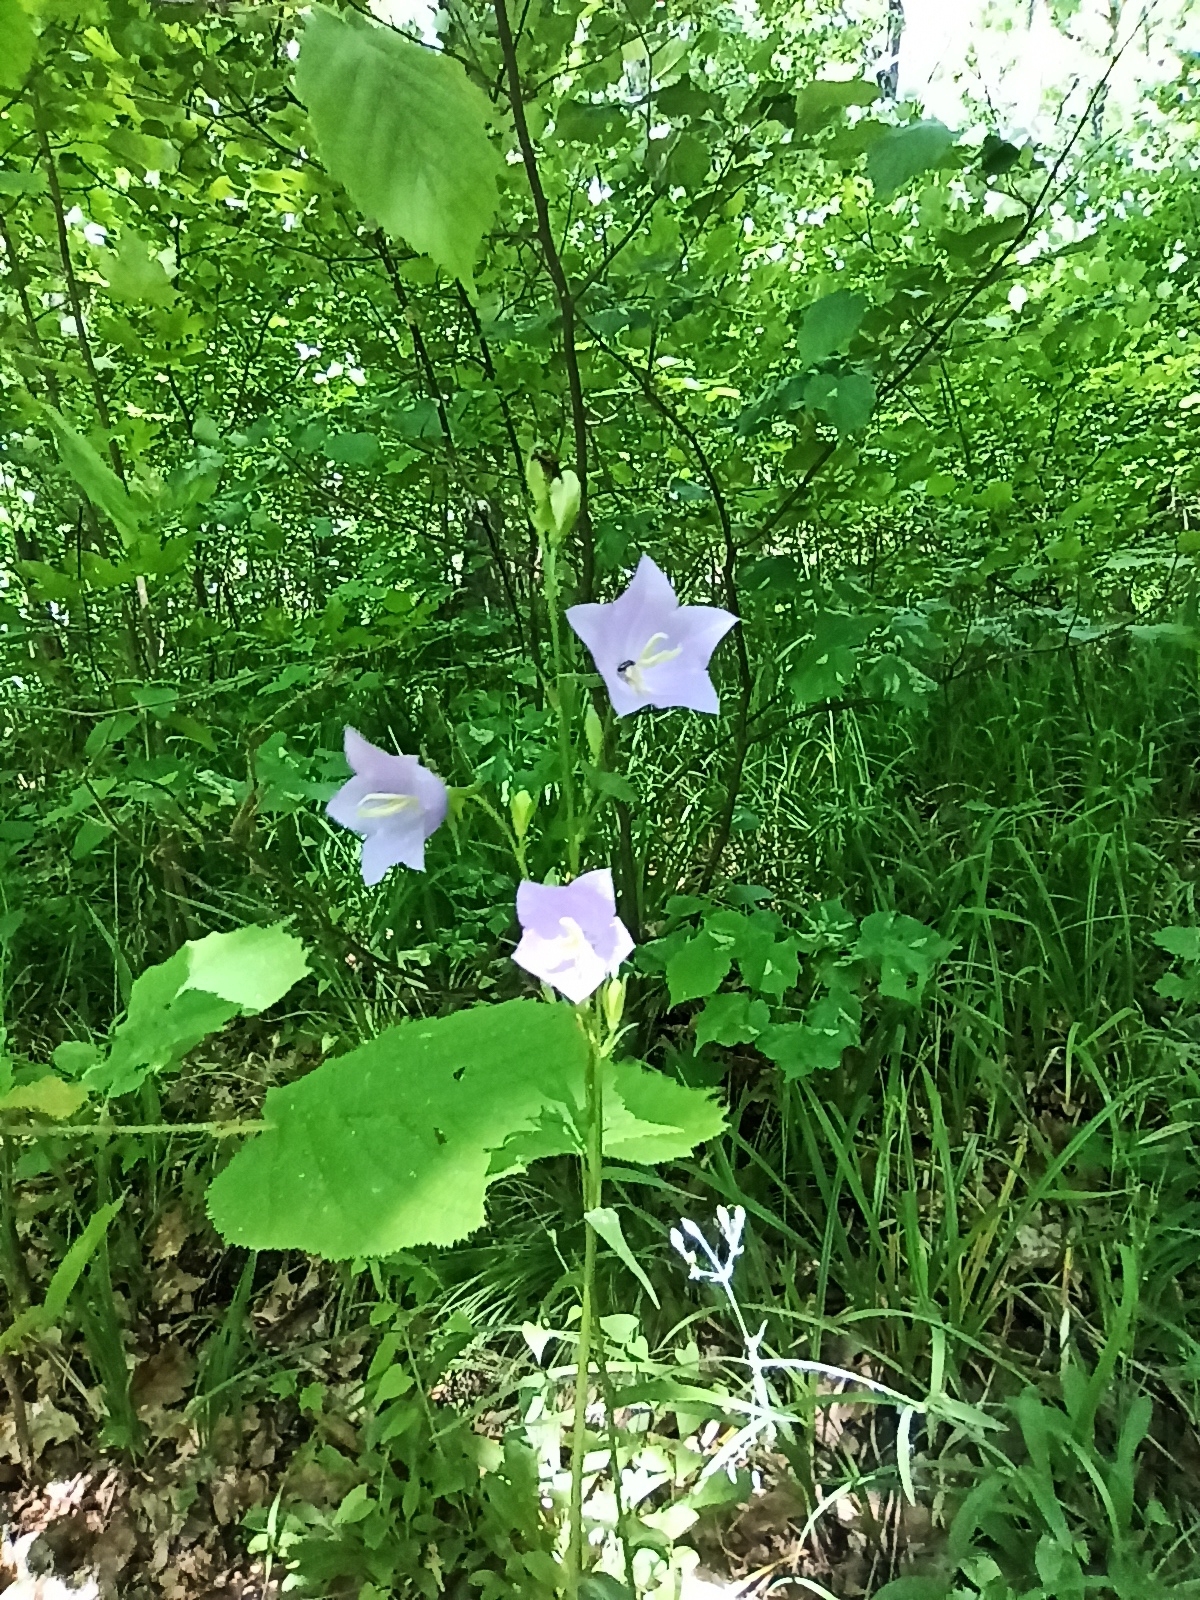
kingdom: Plantae
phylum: Tracheophyta
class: Magnoliopsida
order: Asterales
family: Campanulaceae
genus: Campanula
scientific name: Campanula persicifolia
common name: Peach-leaved bellflower
